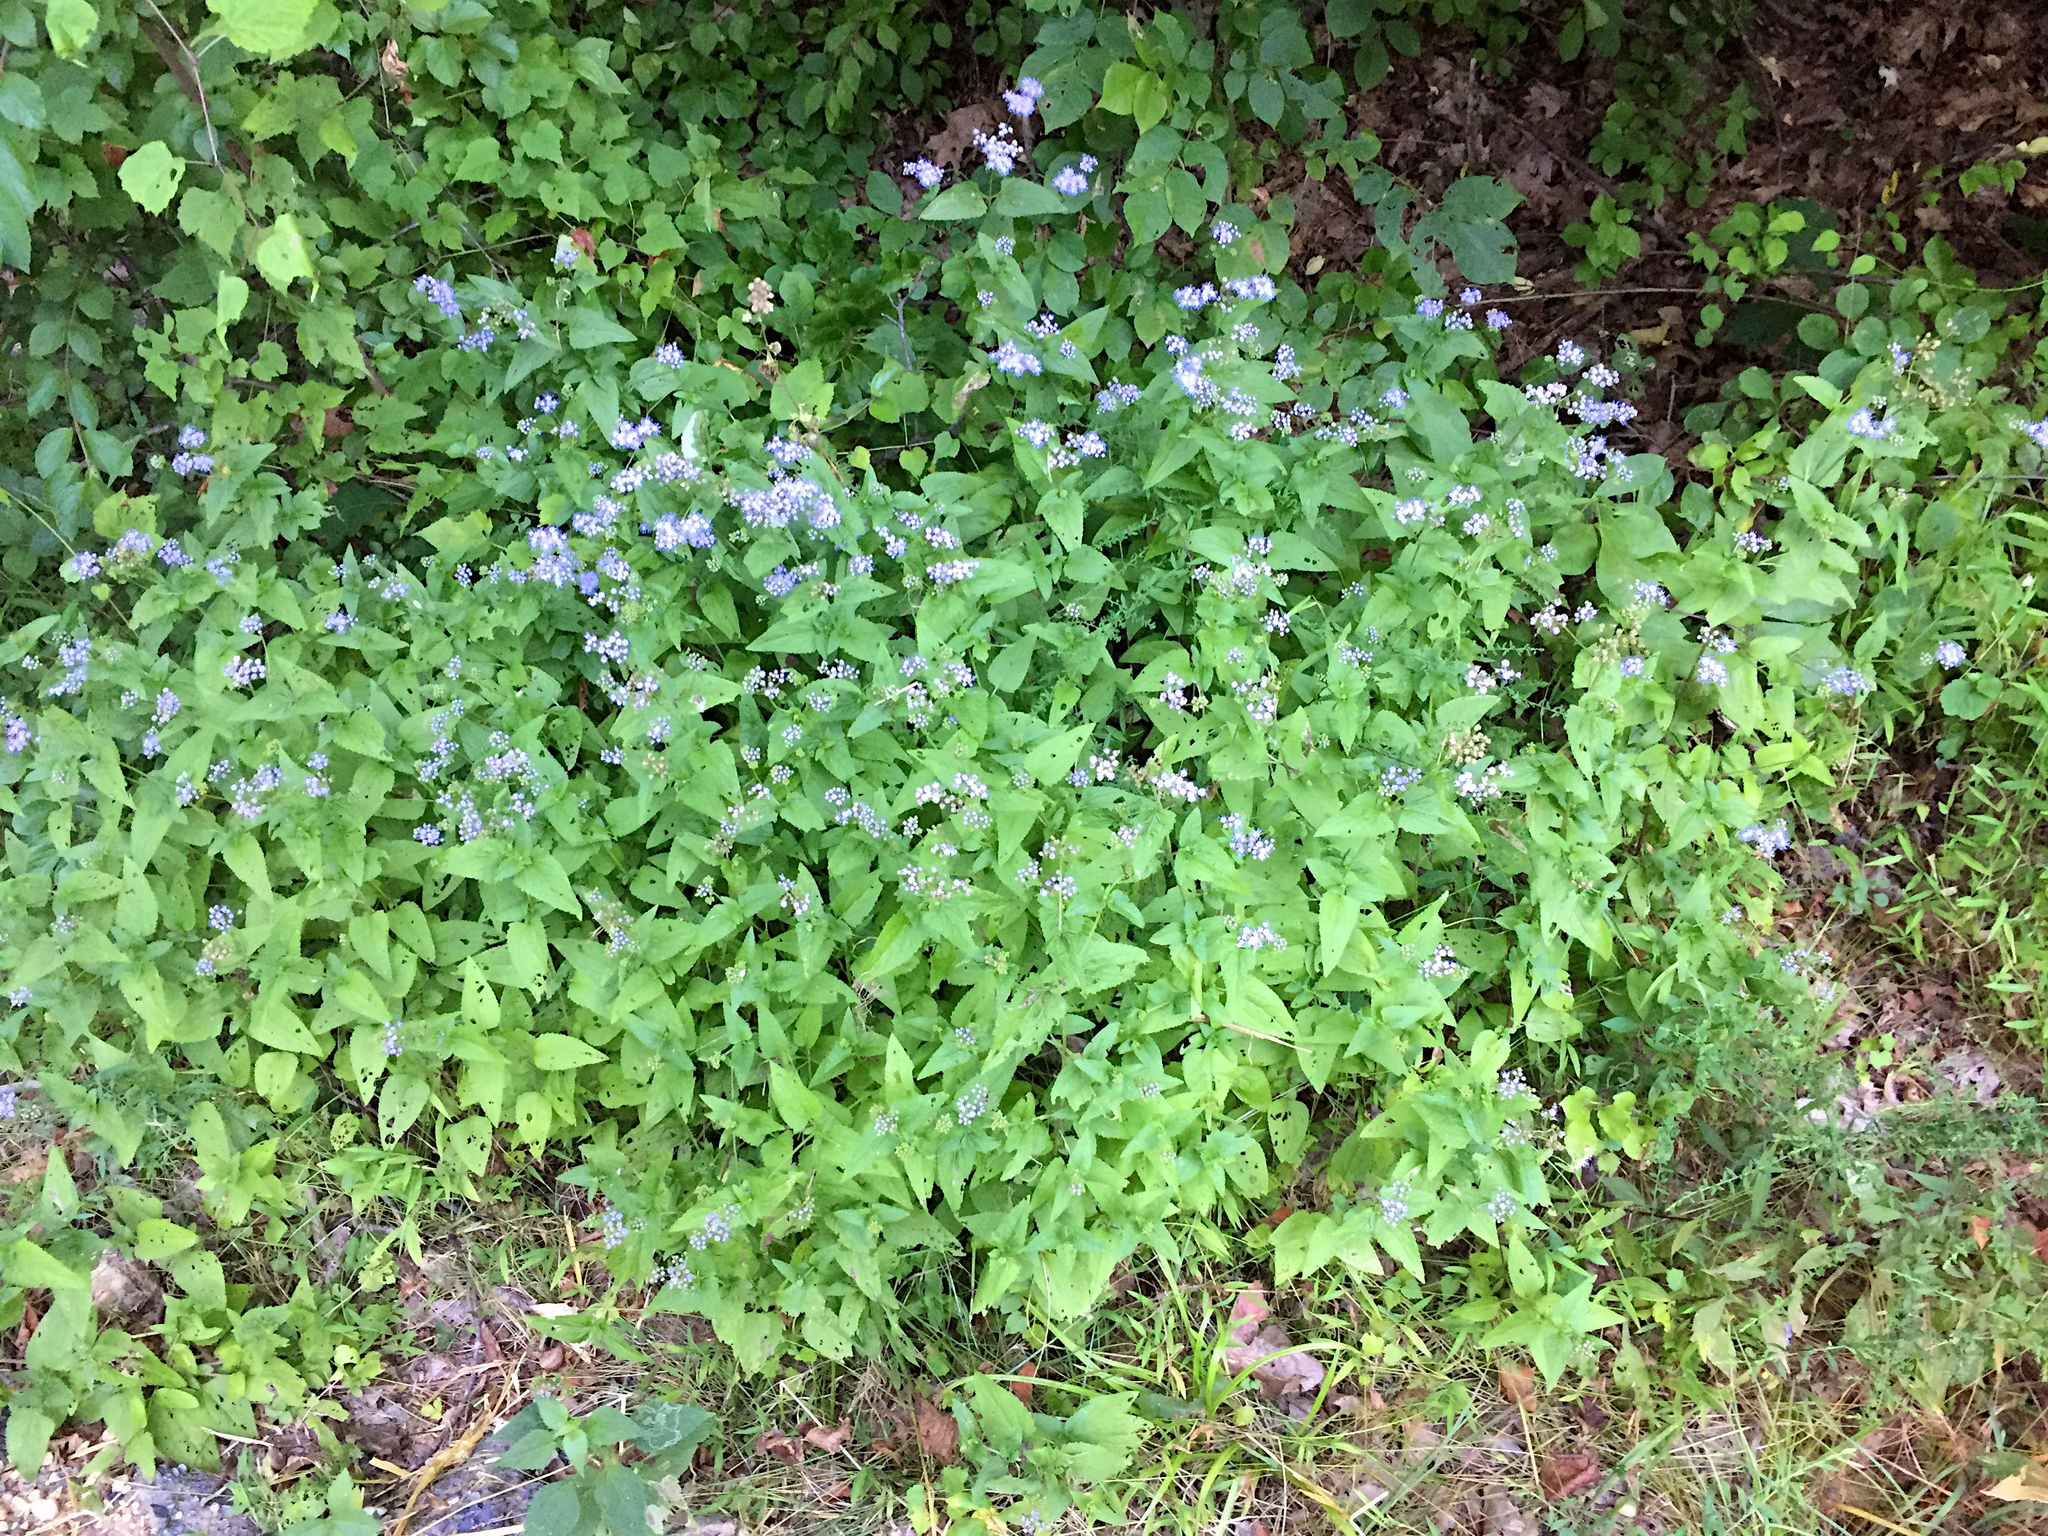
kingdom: Plantae
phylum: Tracheophyta
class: Magnoliopsida
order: Asterales
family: Asteraceae
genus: Conoclinium
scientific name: Conoclinium coelestinum
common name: Blue mistflower
